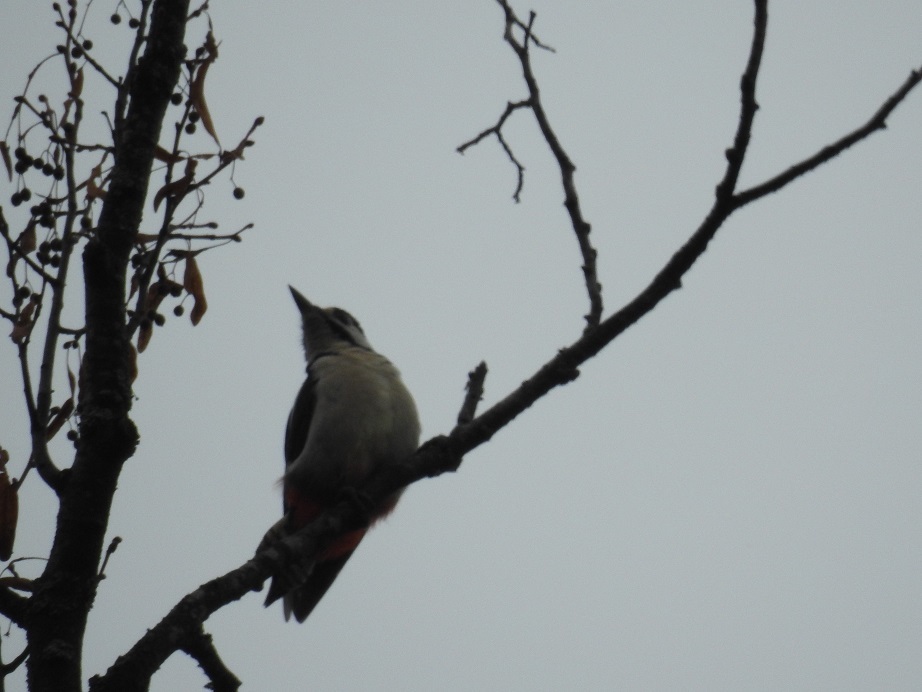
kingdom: Animalia
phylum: Chordata
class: Aves
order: Piciformes
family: Picidae
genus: Dendrocopos
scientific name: Dendrocopos major
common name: Great spotted woodpecker
